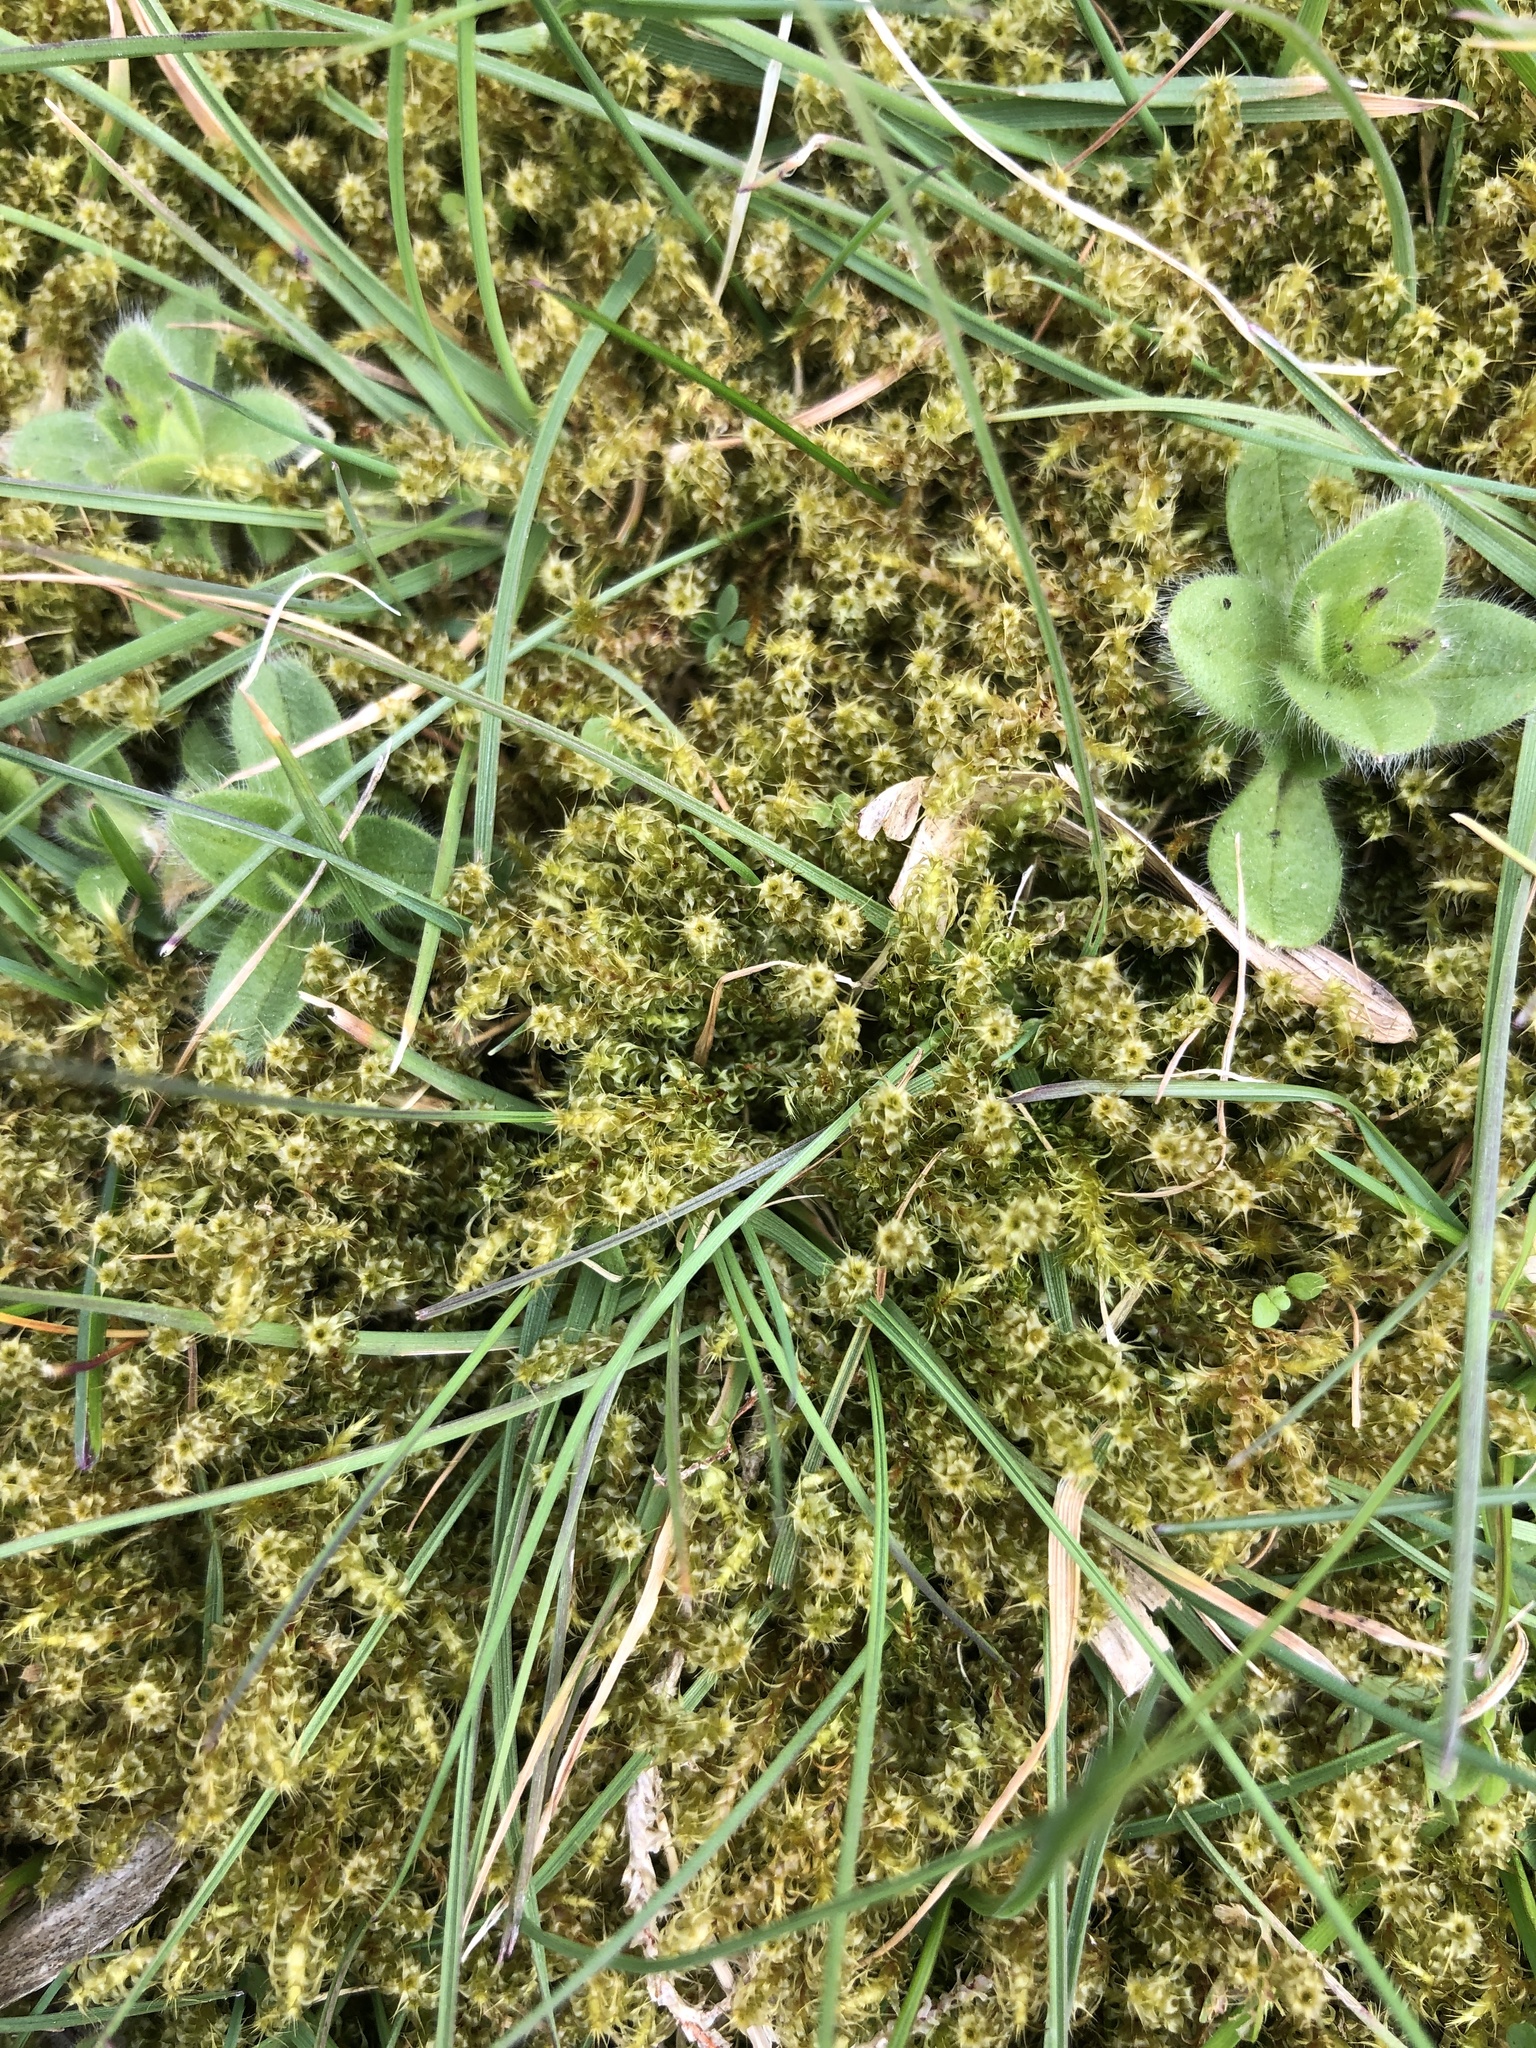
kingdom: Plantae
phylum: Bryophyta
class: Bryopsida
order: Hypnales
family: Hylocomiaceae
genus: Rhytidiadelphus
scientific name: Rhytidiadelphus squarrosus
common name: Springy turf-moss
